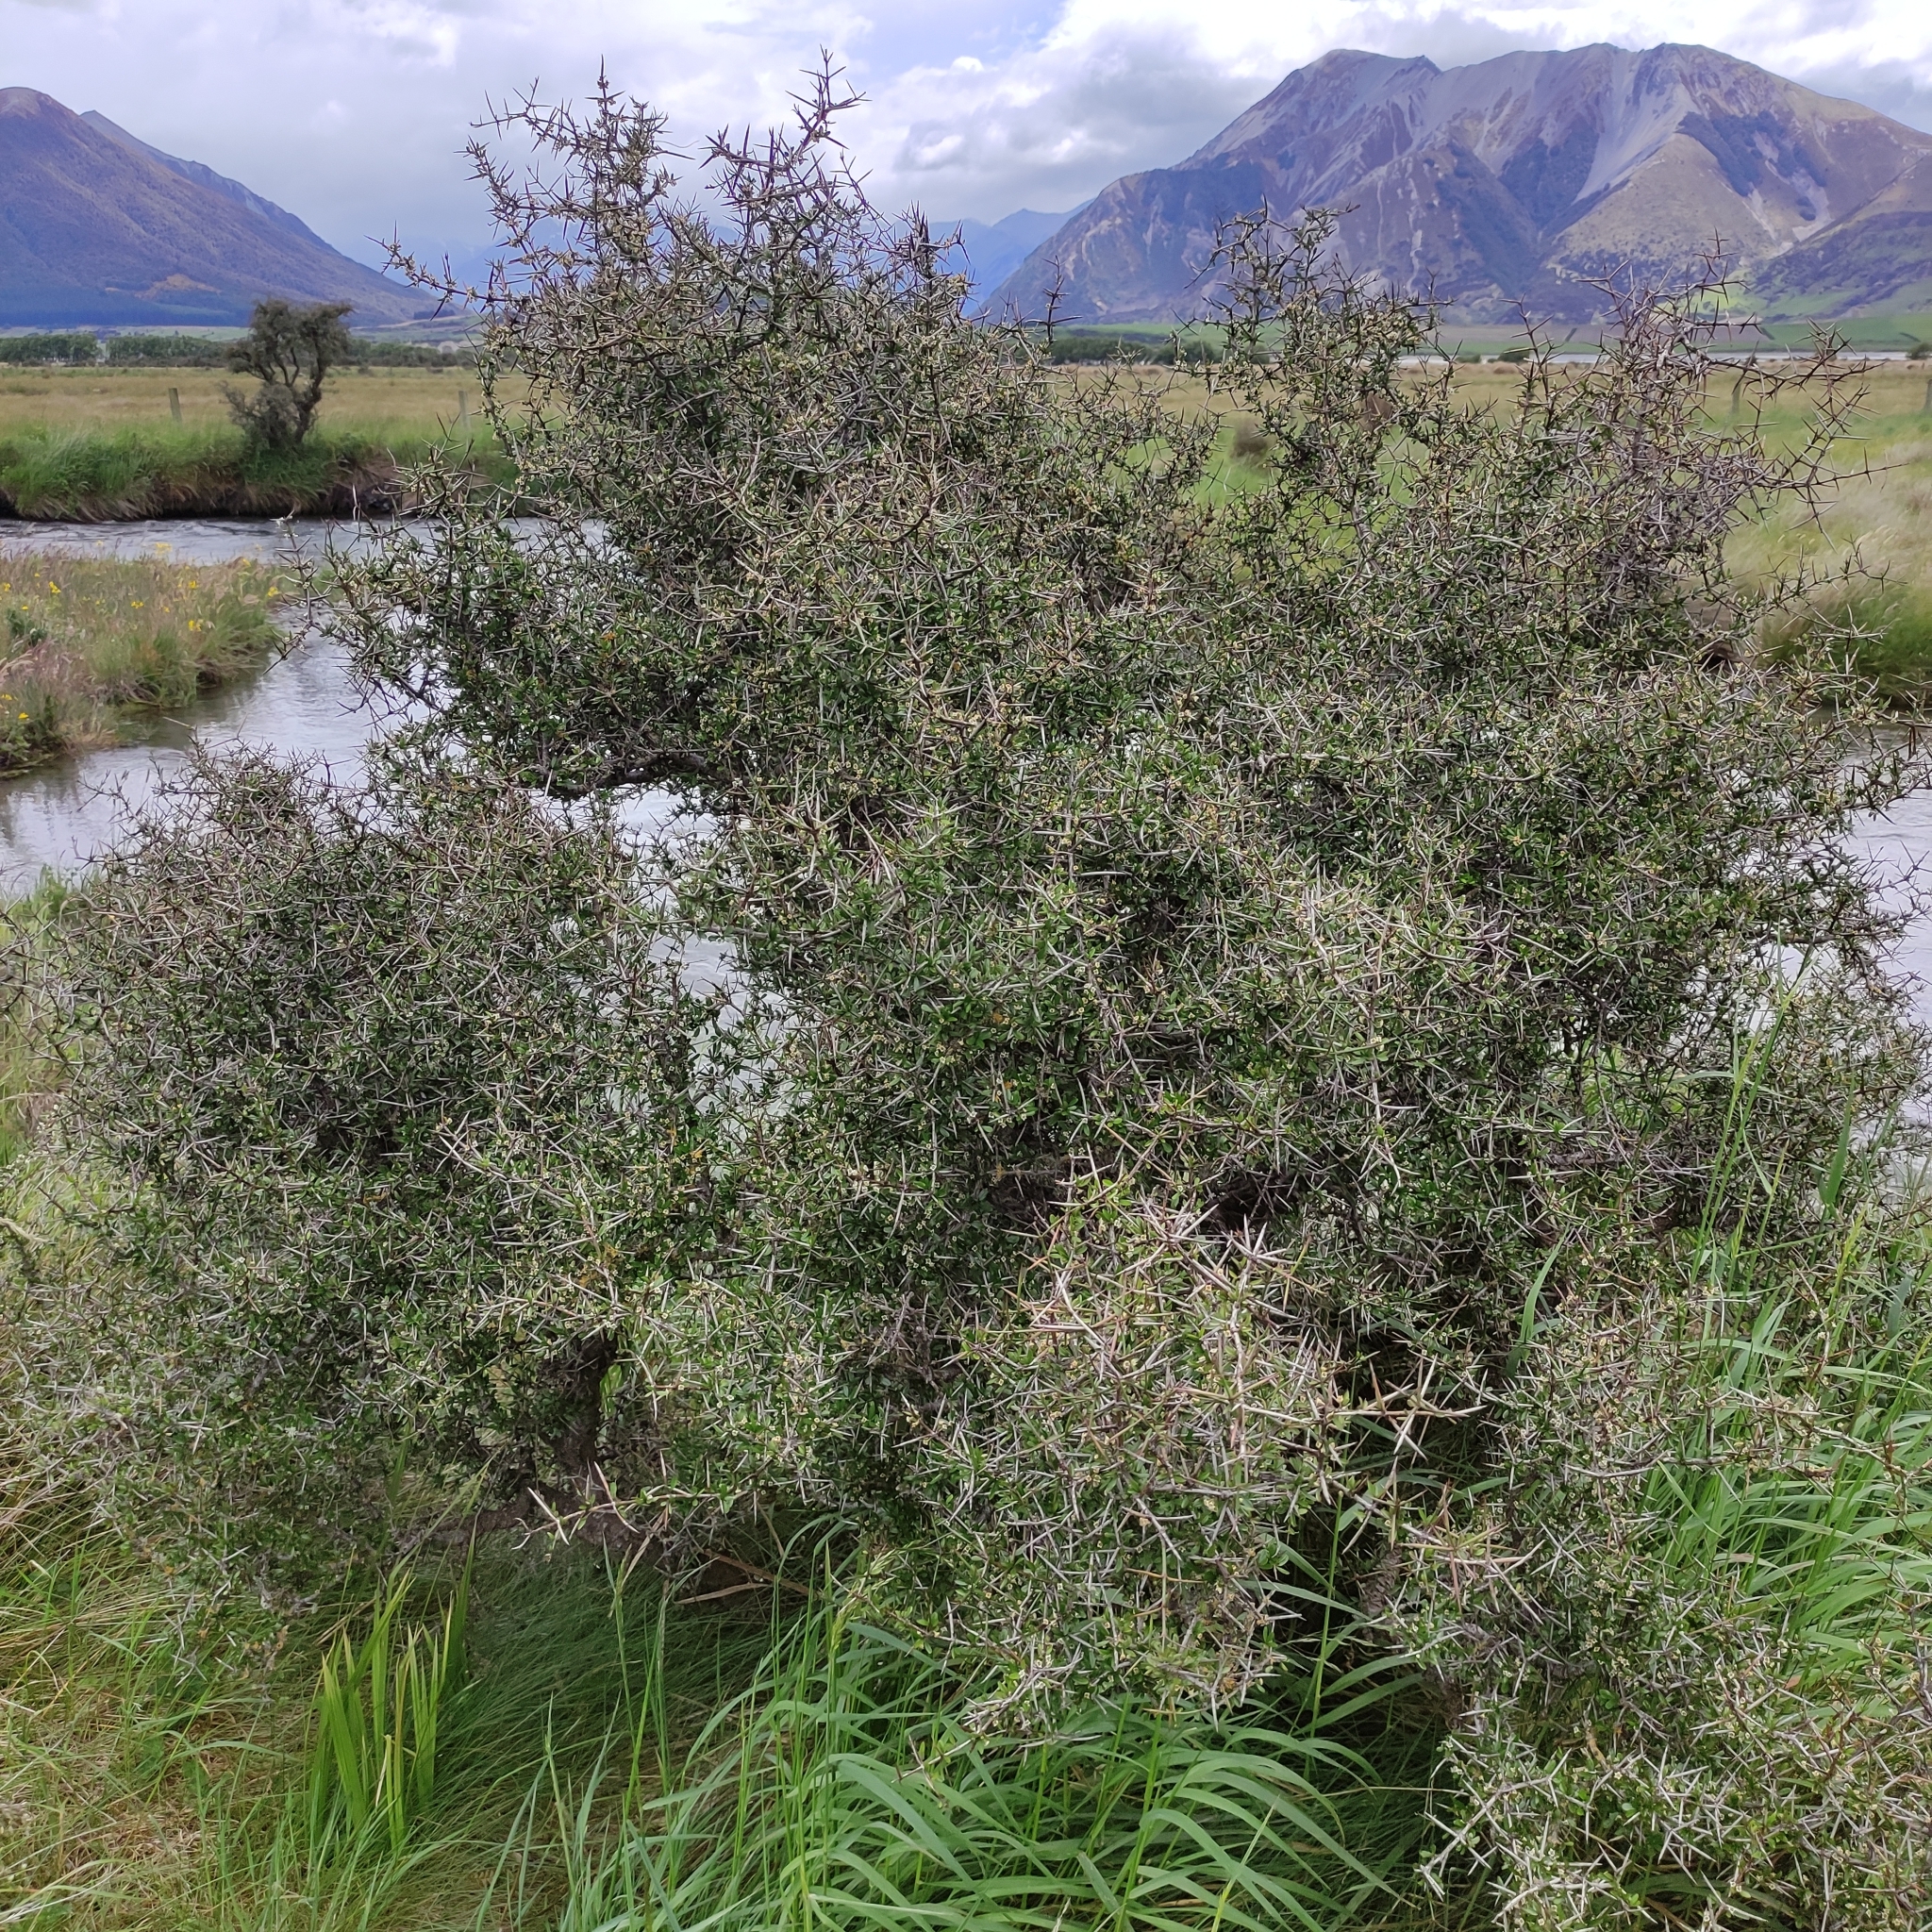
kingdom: Plantae
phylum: Tracheophyta
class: Magnoliopsida
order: Rosales
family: Rhamnaceae
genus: Discaria
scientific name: Discaria toumatou
